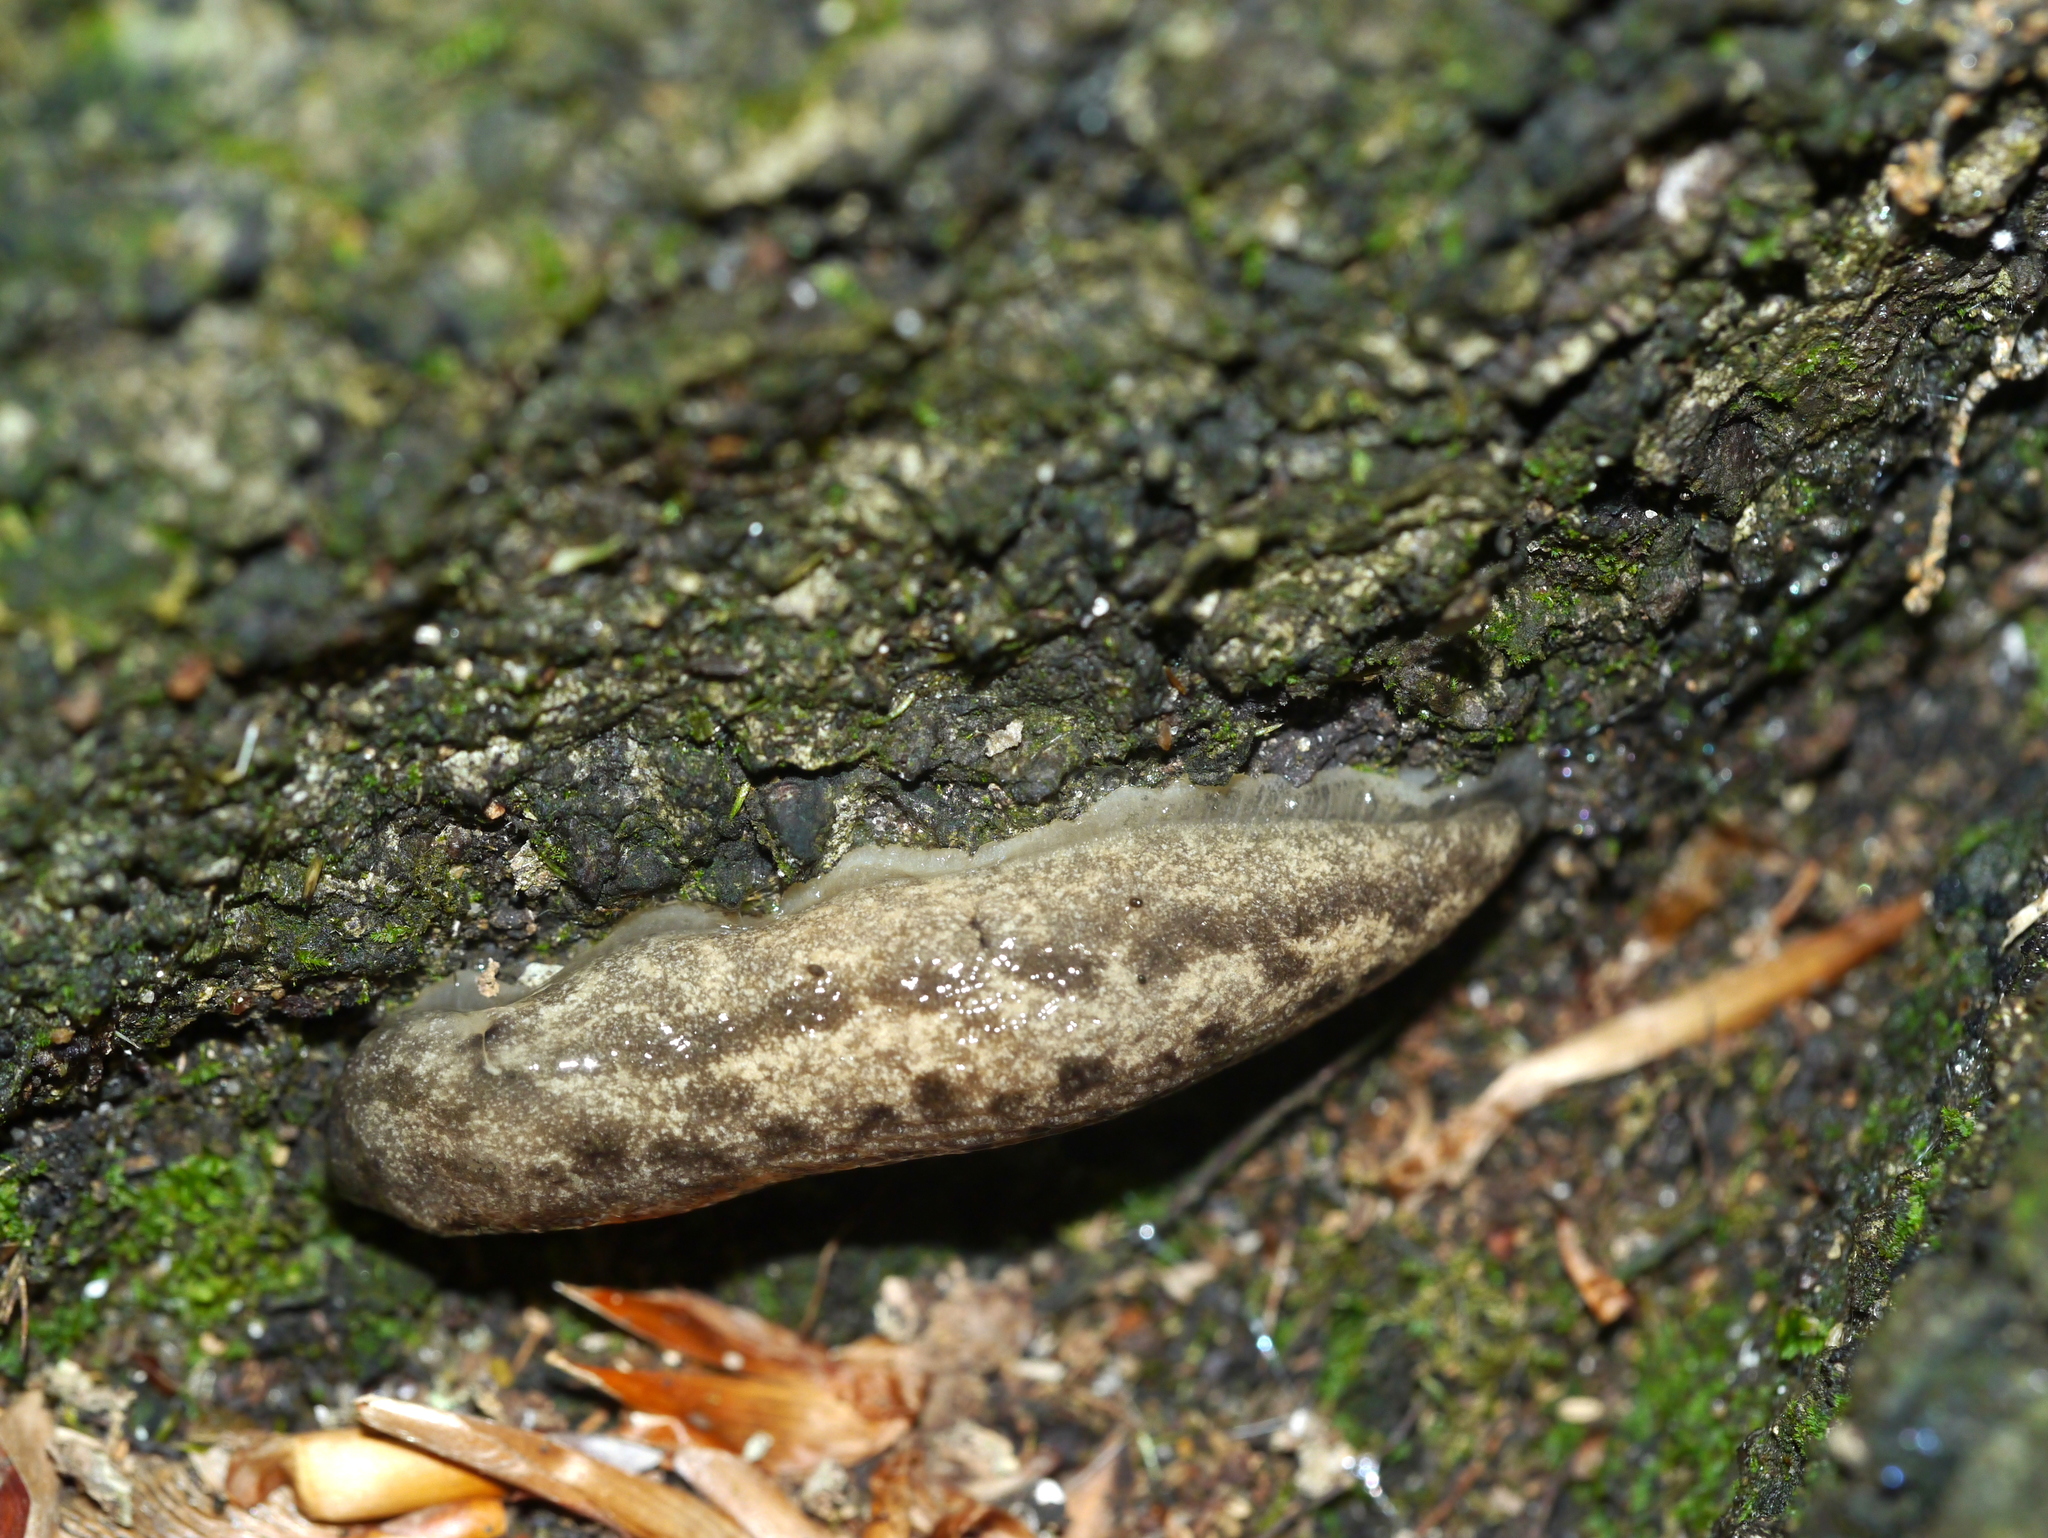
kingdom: Animalia
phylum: Mollusca
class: Gastropoda
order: Stylommatophora
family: Philomycidae
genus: Megapallifera
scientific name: Megapallifera mutabilis
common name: Changeable mantleslug
